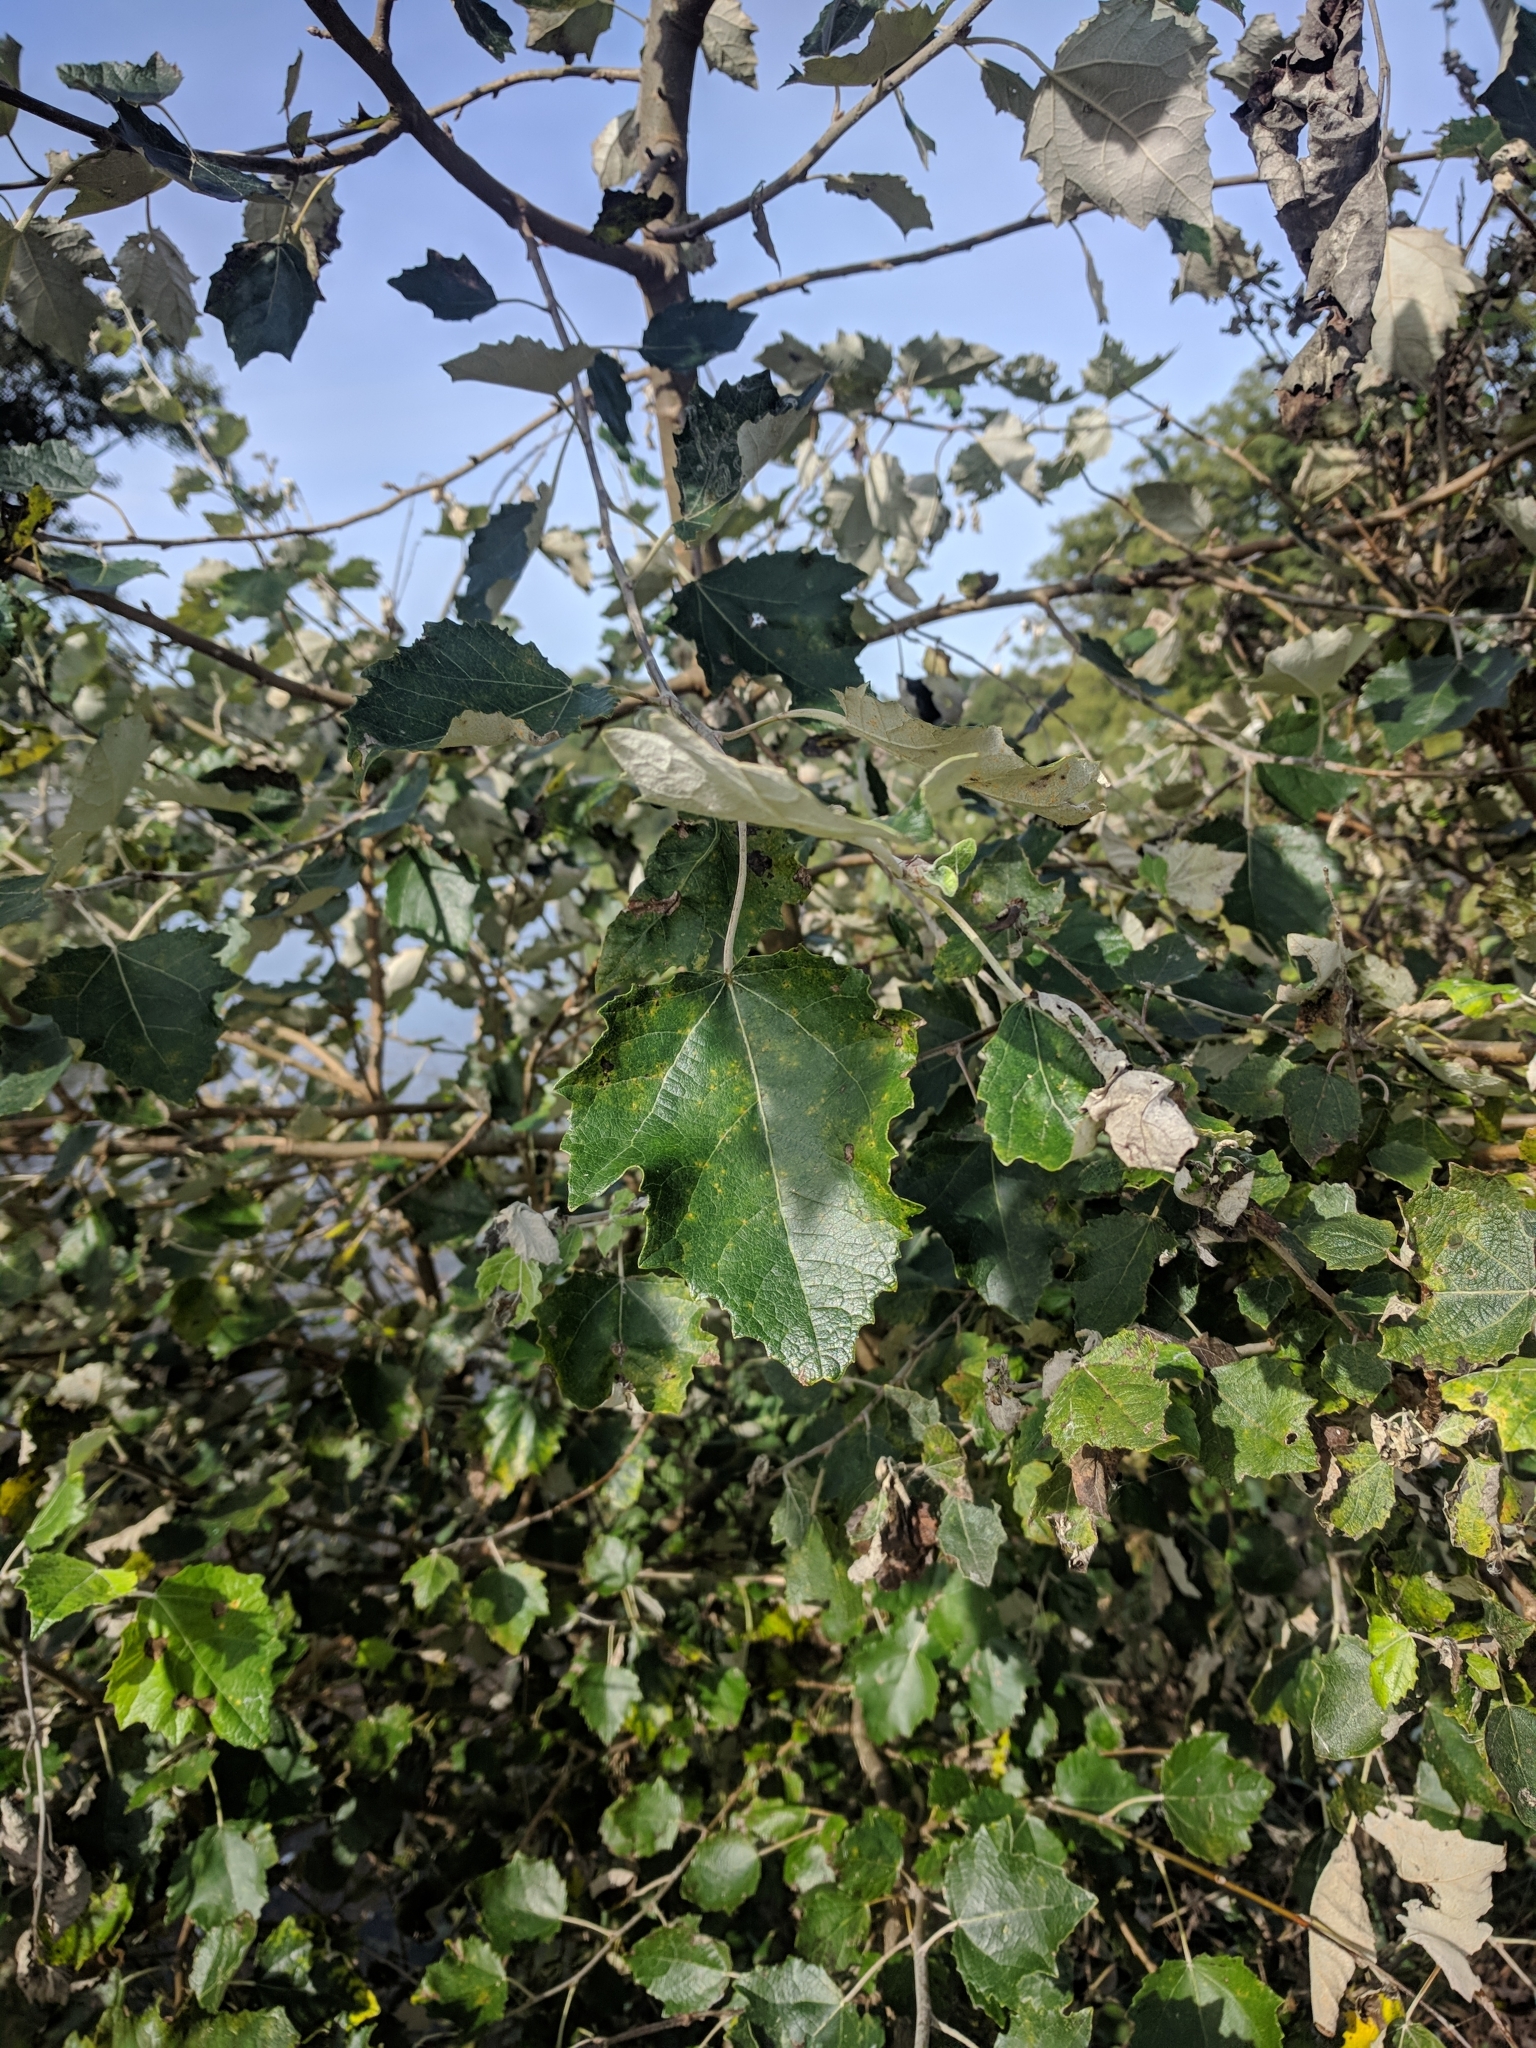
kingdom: Plantae
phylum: Tracheophyta
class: Magnoliopsida
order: Malpighiales
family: Salicaceae
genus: Populus
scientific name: Populus alba
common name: White poplar
